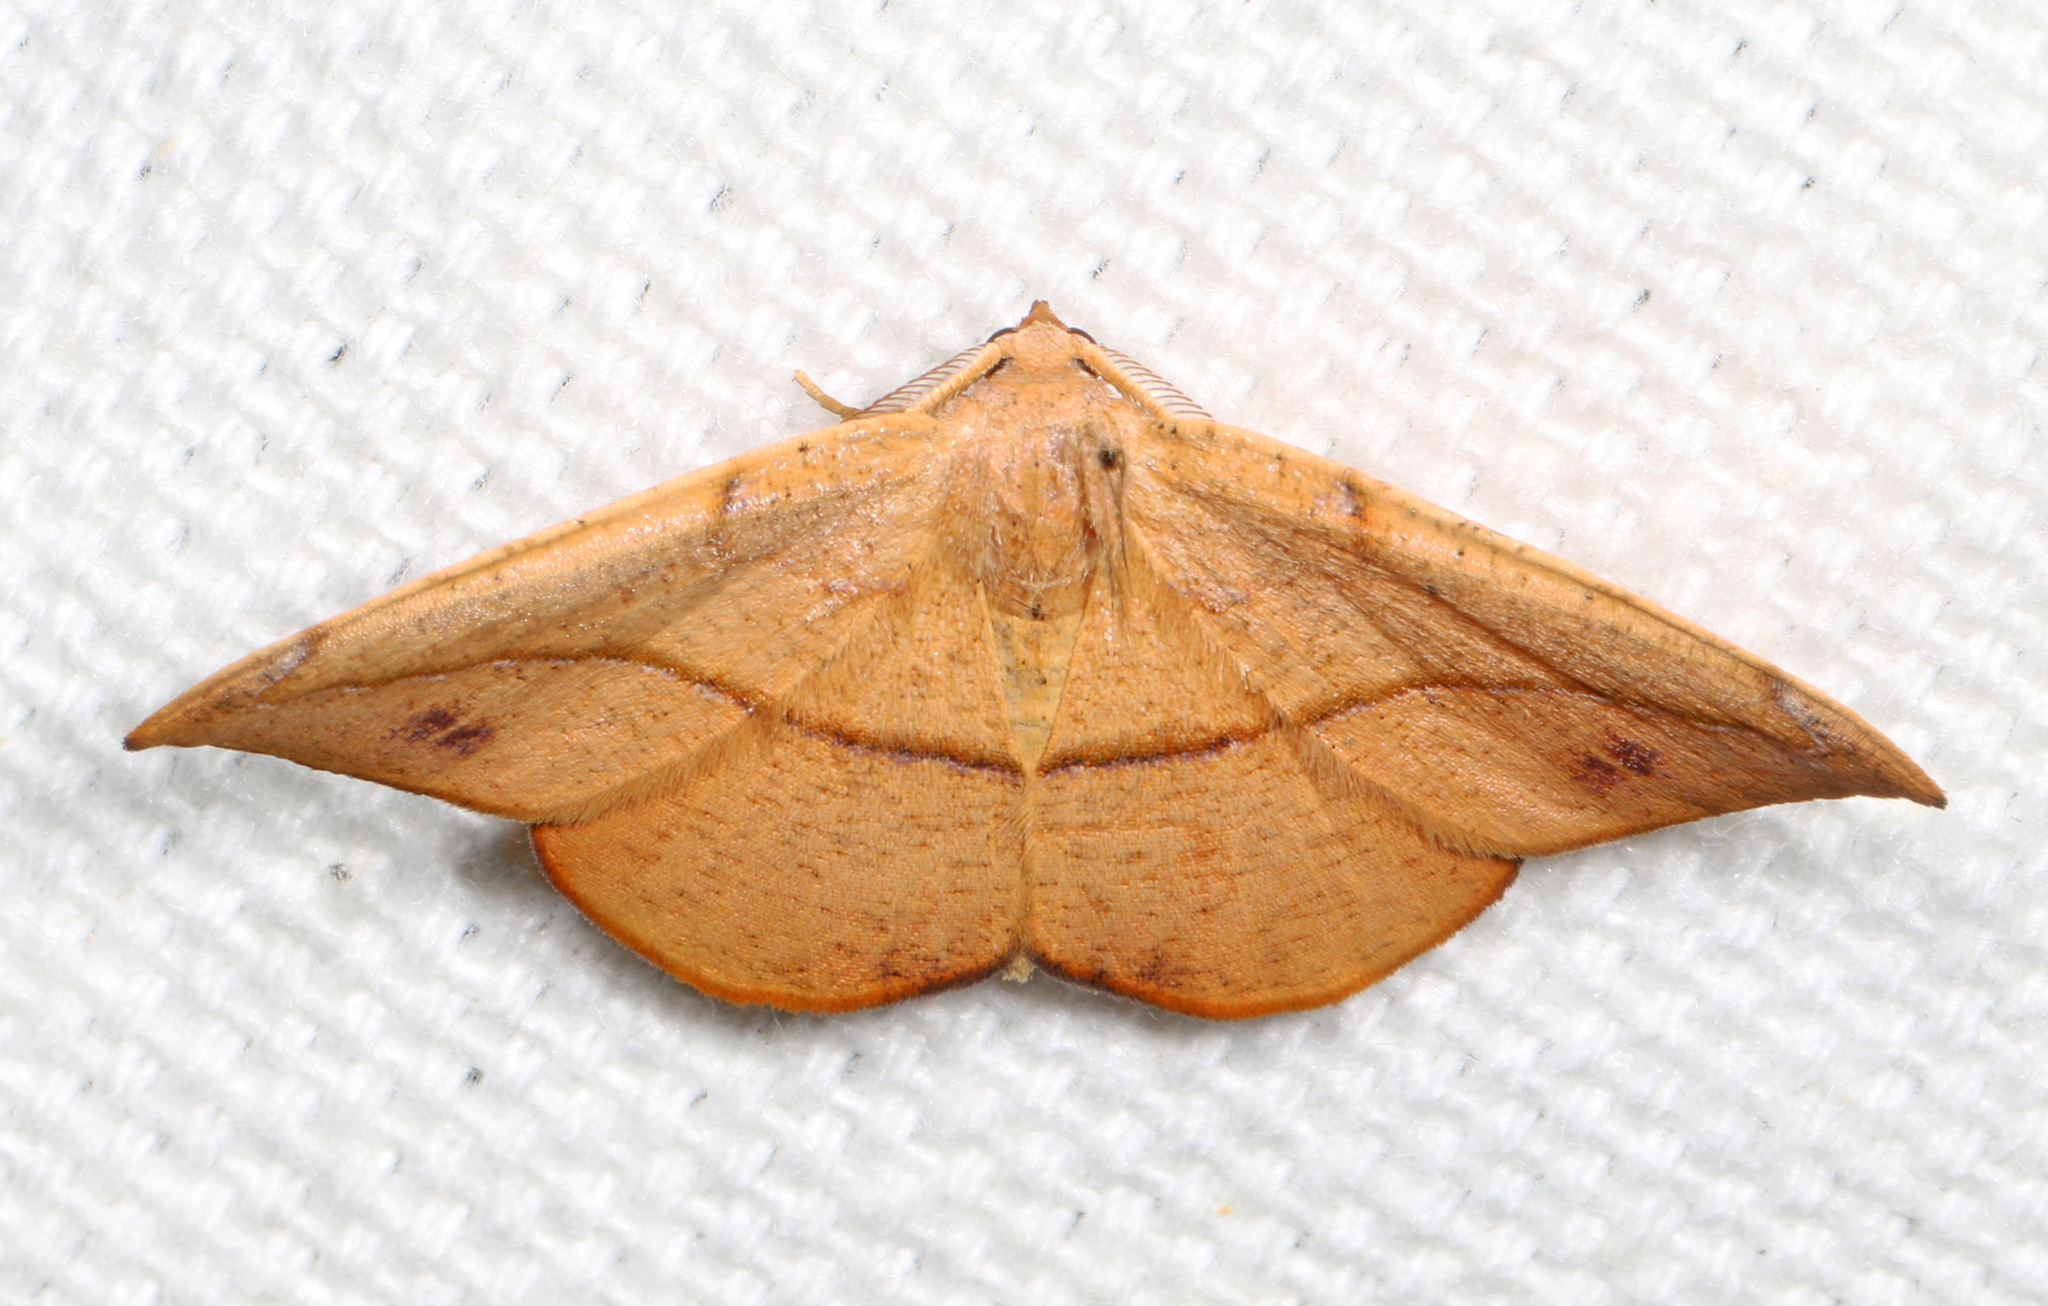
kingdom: Animalia
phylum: Arthropoda
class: Insecta
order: Lepidoptera
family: Geometridae
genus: Patalene
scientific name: Patalene olyzonaria
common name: Juniper geometer moth
